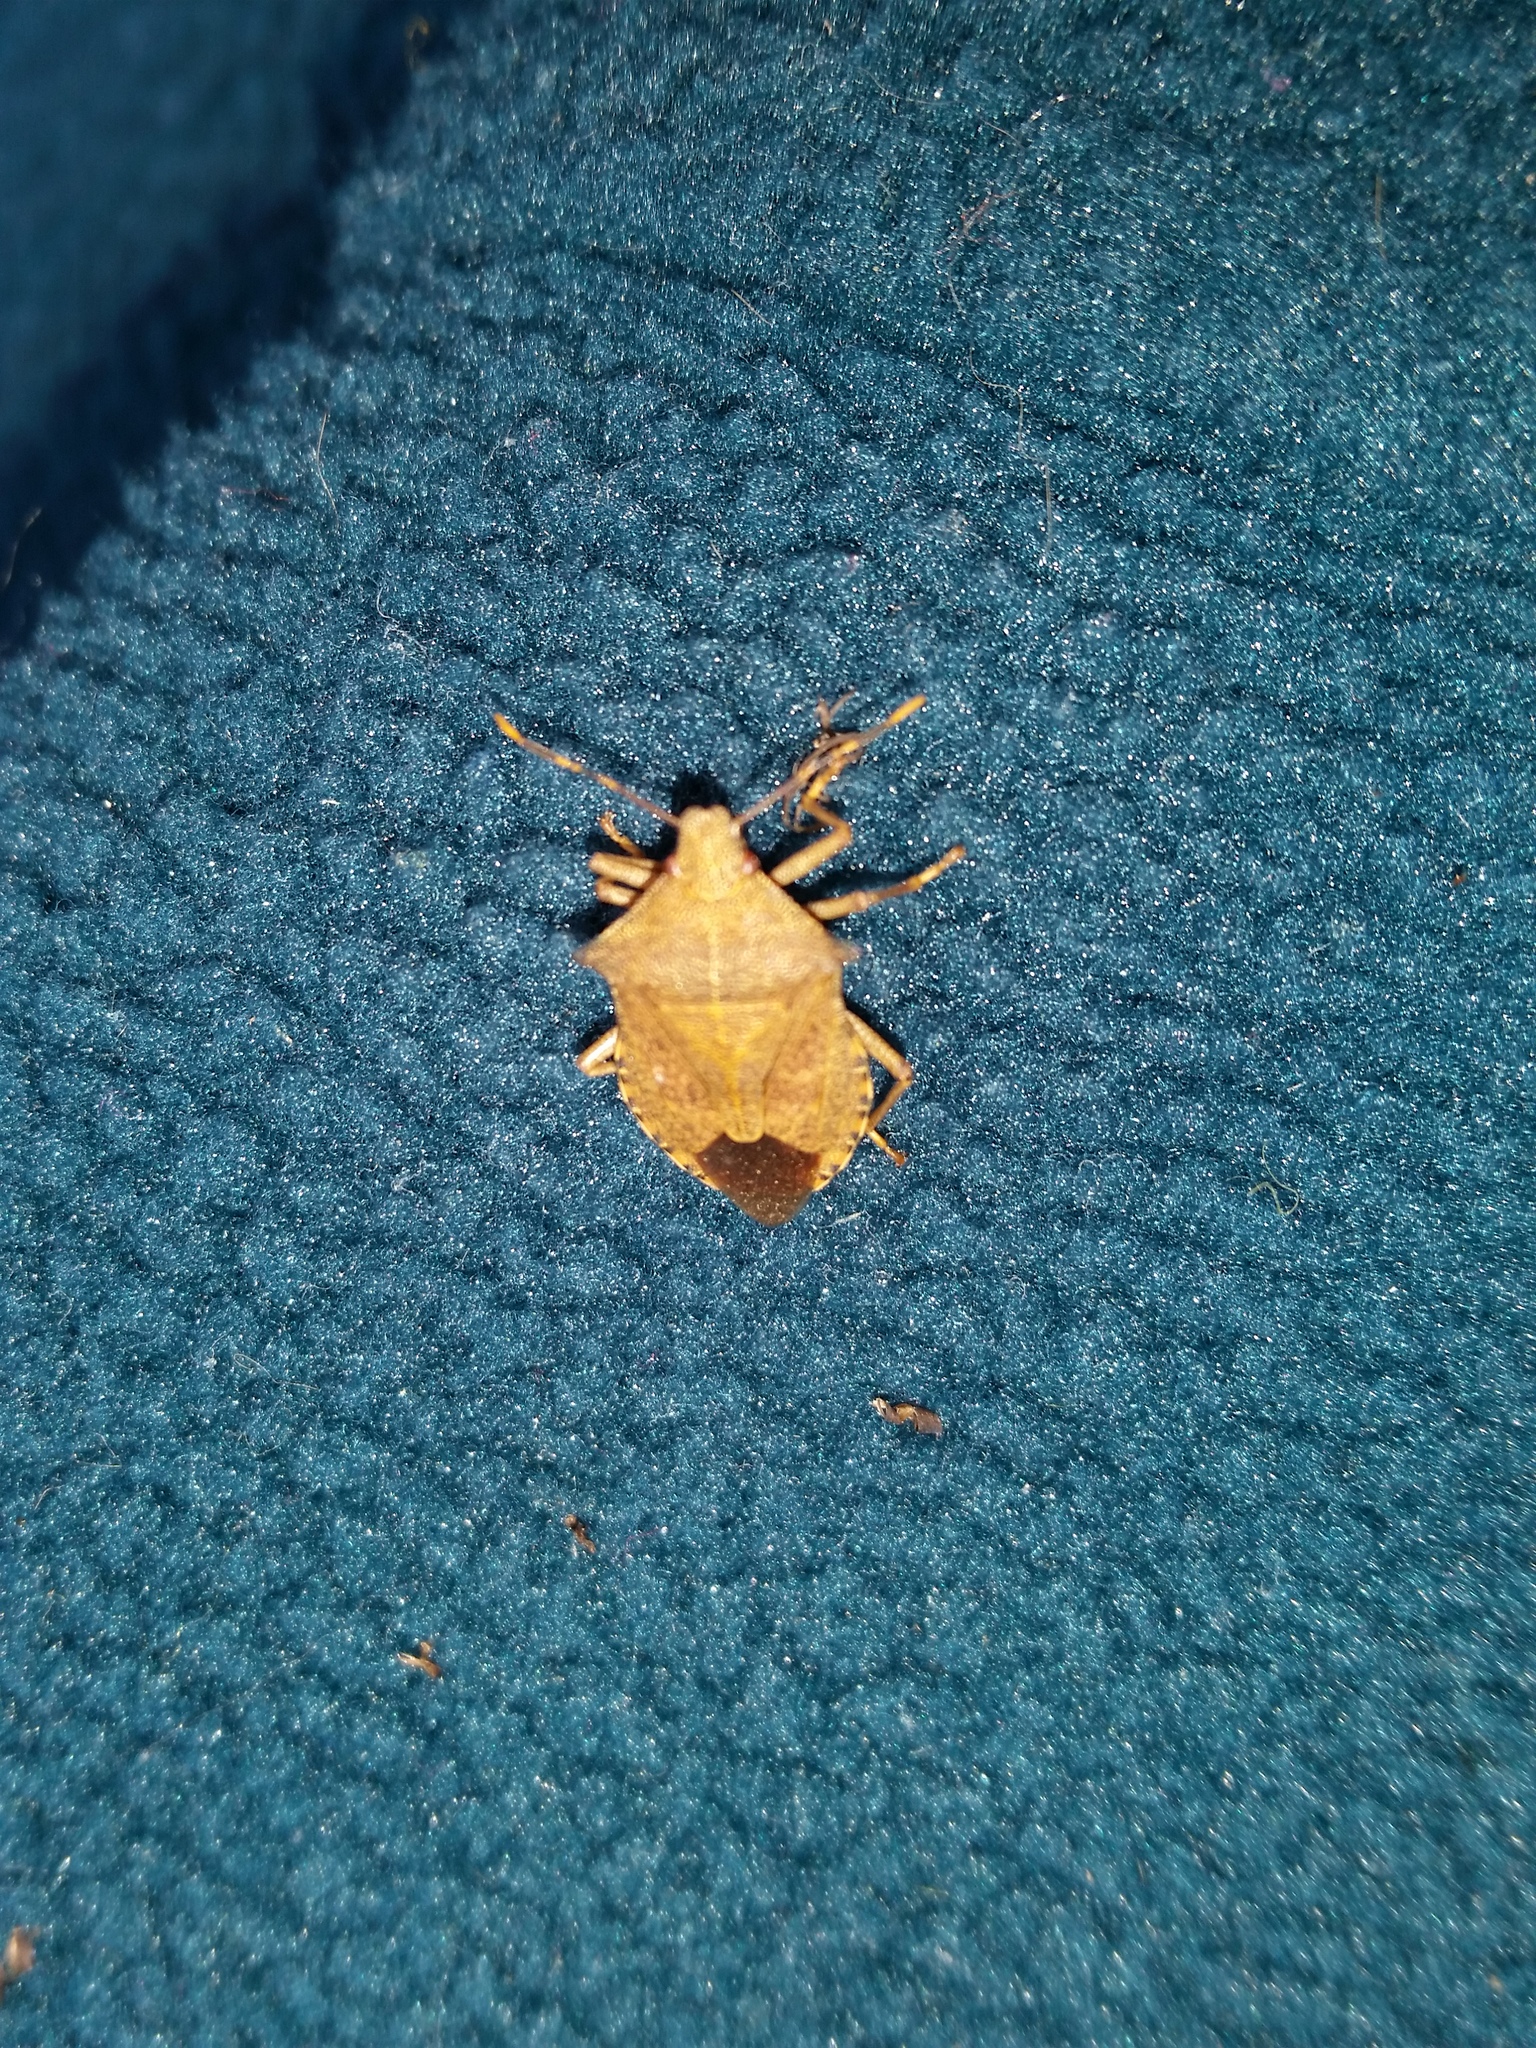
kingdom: Animalia
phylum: Arthropoda
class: Insecta
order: Hemiptera
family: Pentatomidae
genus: Arma
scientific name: Arma custos
